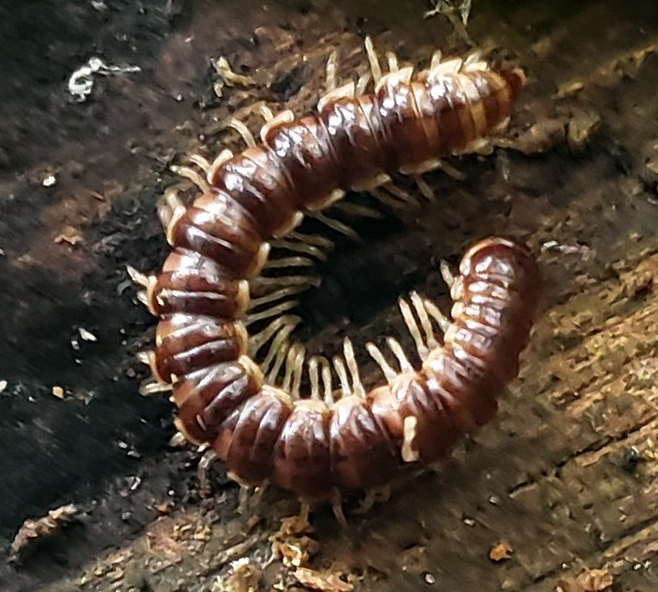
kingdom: Animalia
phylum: Arthropoda
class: Diplopoda
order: Polydesmida
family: Paradoxosomatidae
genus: Oxidus
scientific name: Oxidus gracilis
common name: Greenhouse millipede
